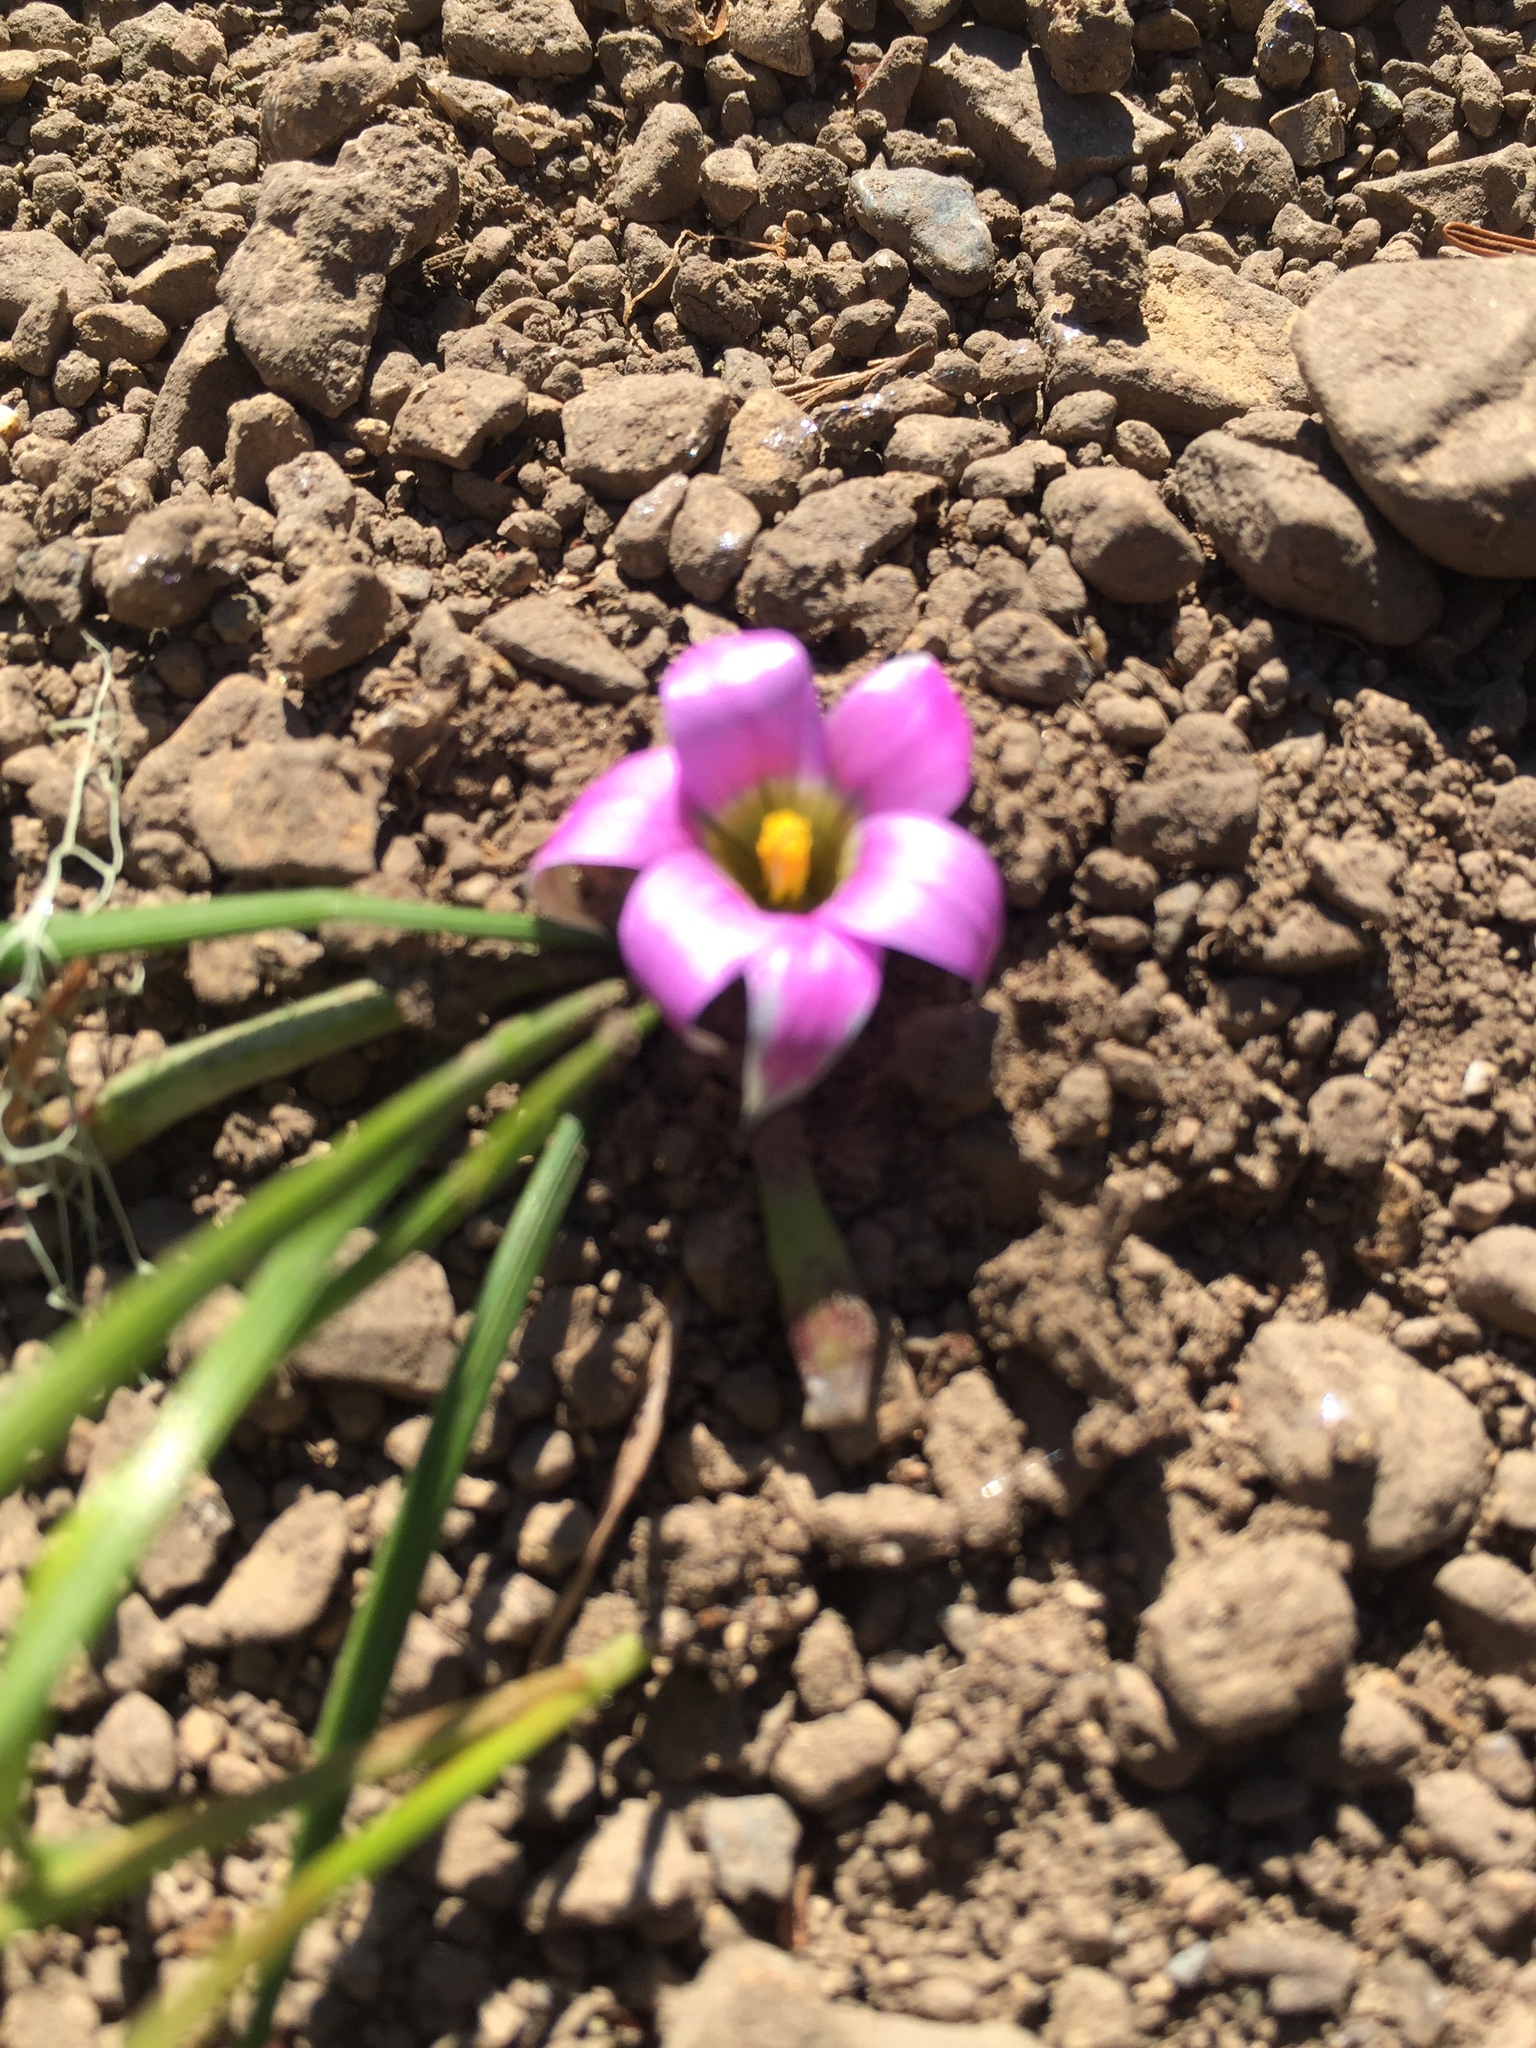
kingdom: Plantae
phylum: Tracheophyta
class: Liliopsida
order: Asparagales
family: Iridaceae
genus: Romulea
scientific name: Romulea rosea
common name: Oniongrass
